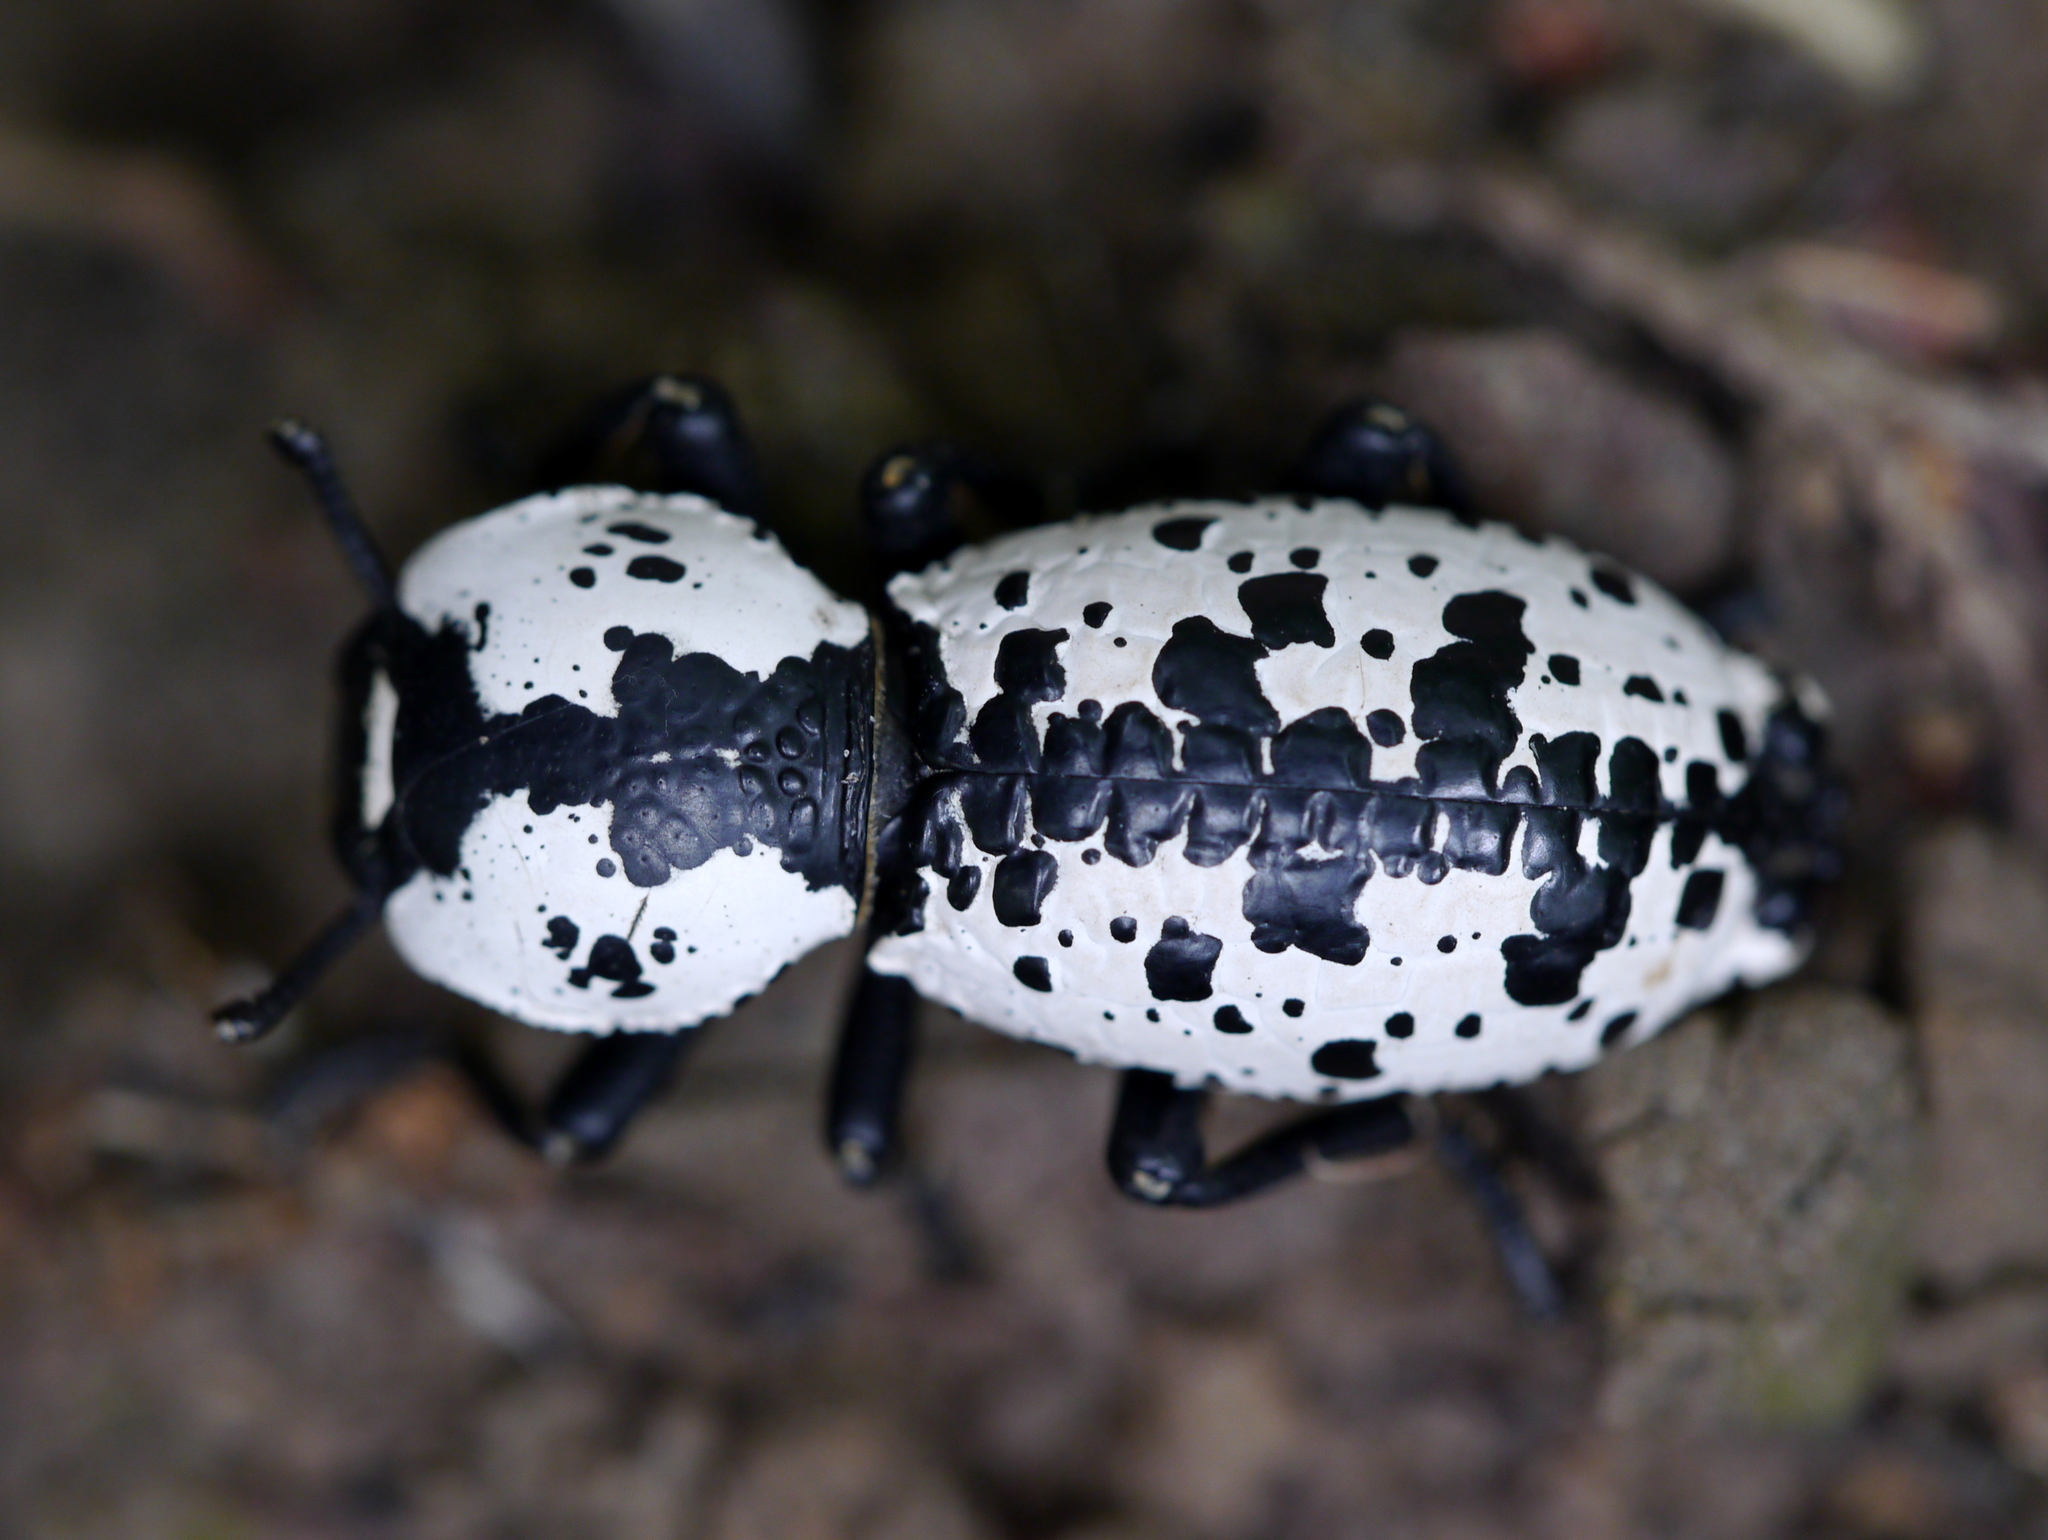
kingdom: Animalia
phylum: Arthropoda
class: Insecta
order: Coleoptera
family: Zopheridae
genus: Zopherus
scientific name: Zopherus nodulosus
